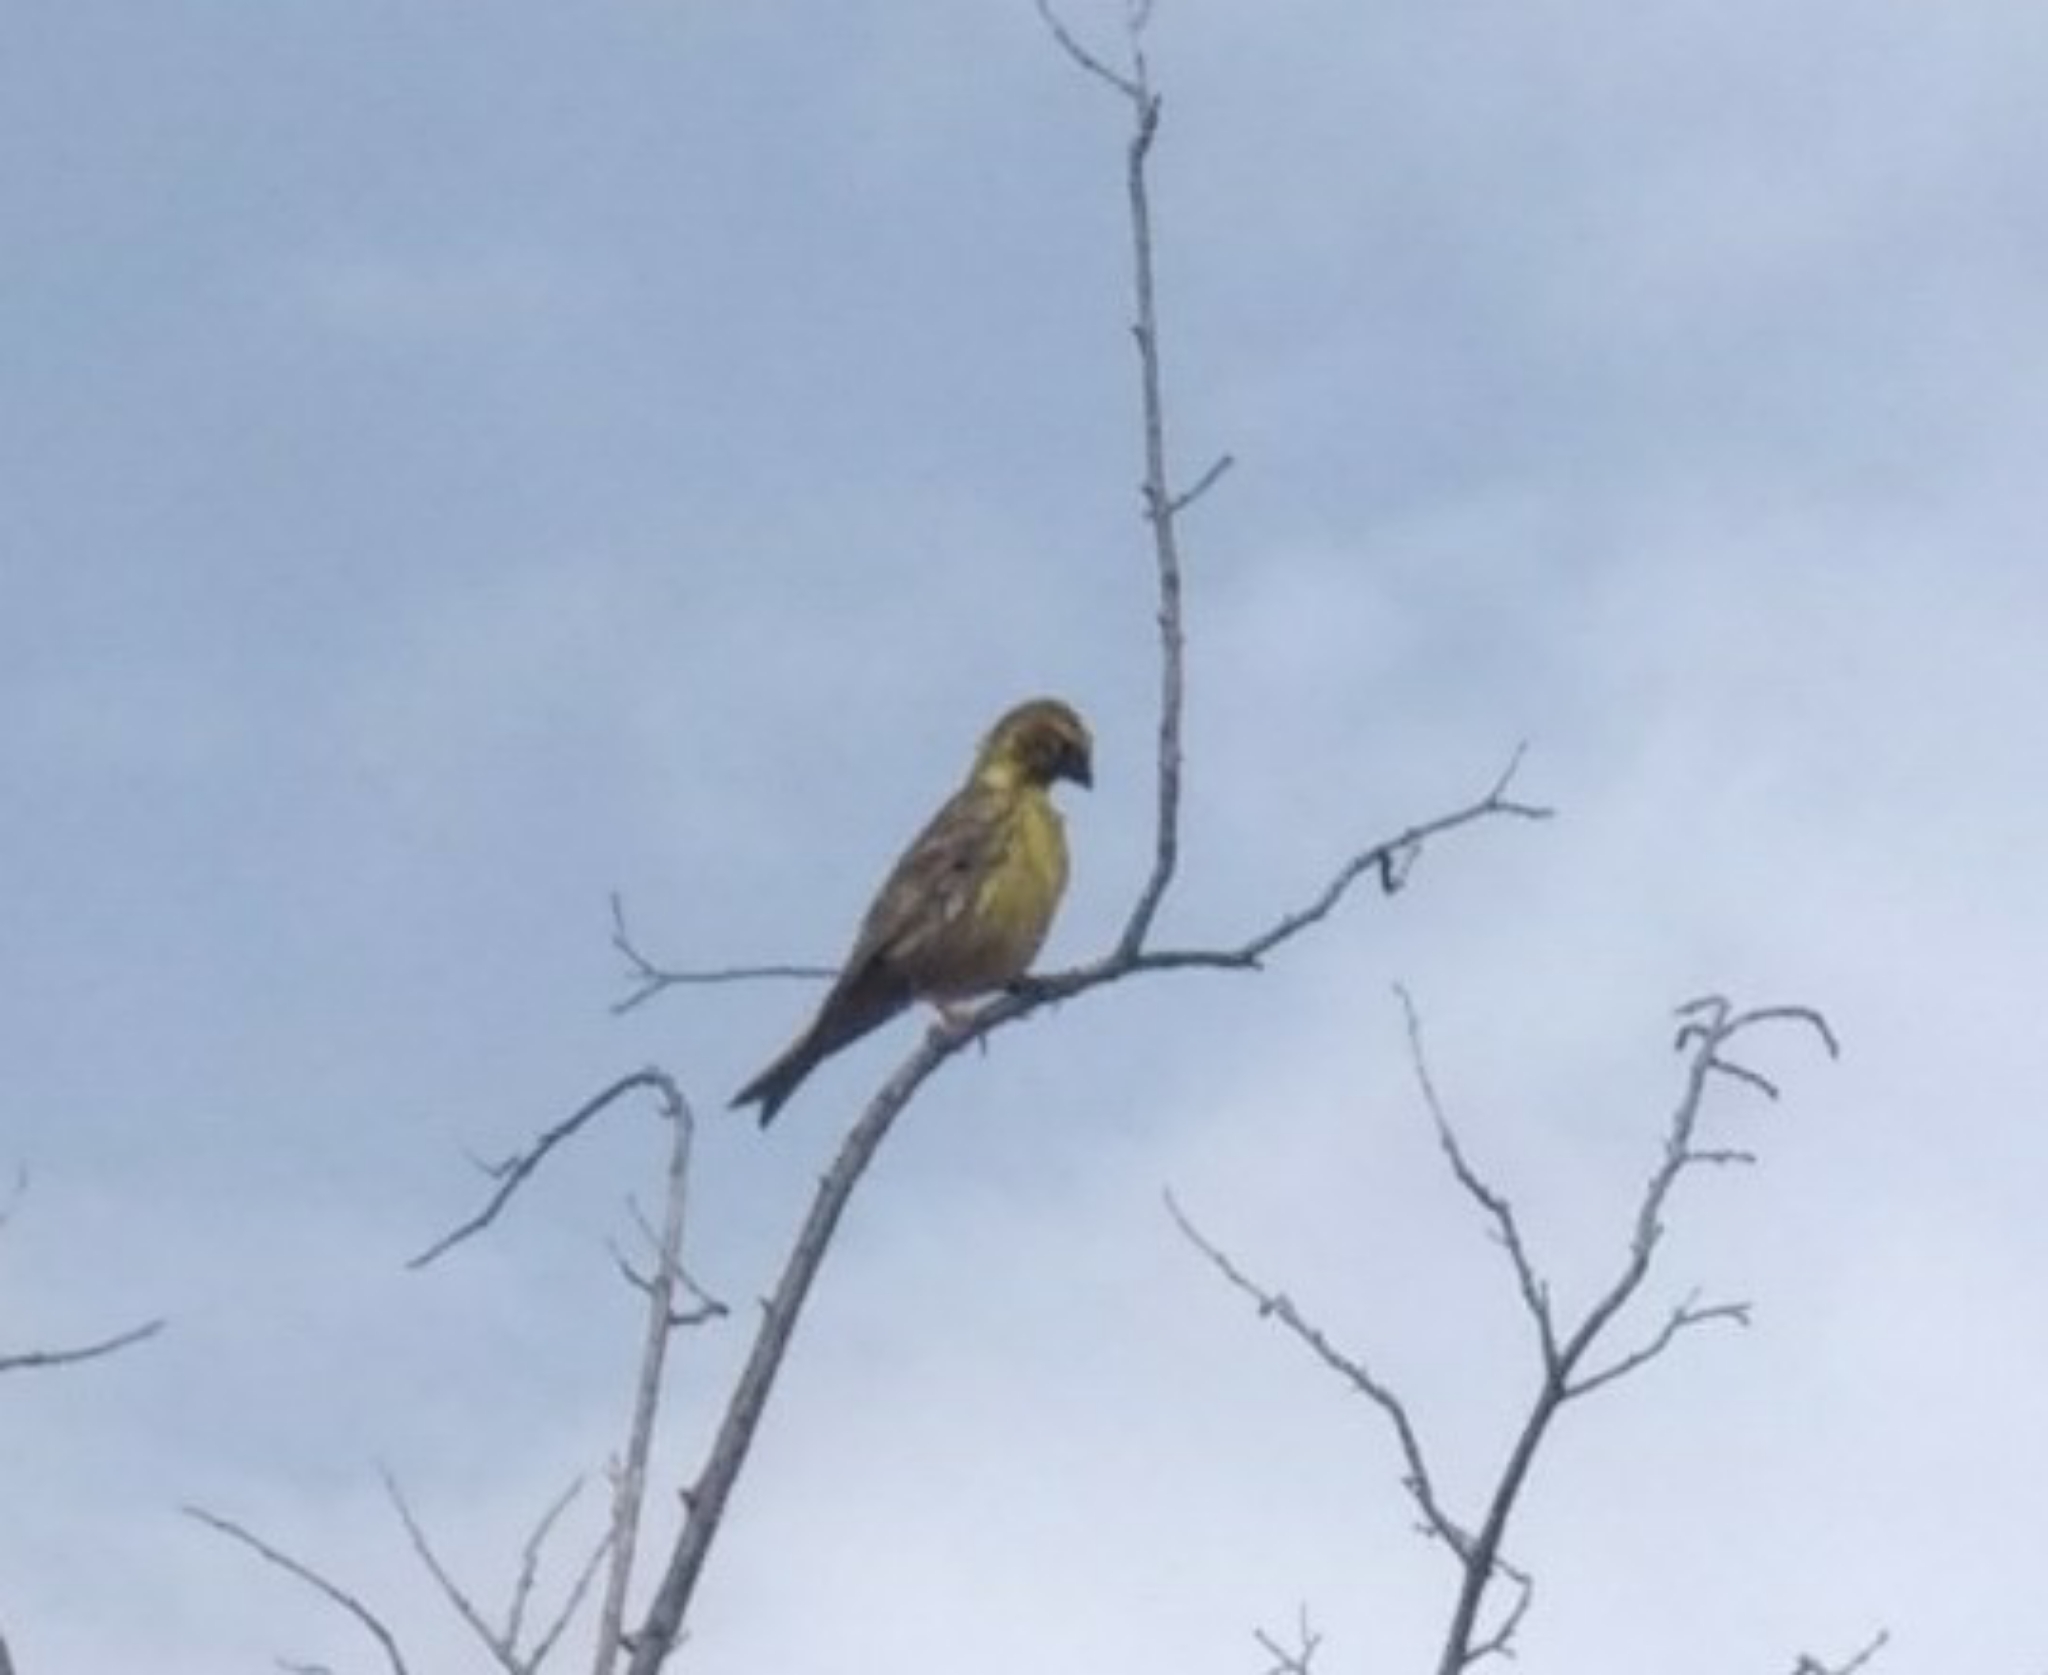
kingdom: Animalia
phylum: Chordata
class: Aves
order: Passeriformes
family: Fringillidae
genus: Serinus
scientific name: Serinus serinus
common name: European serin
